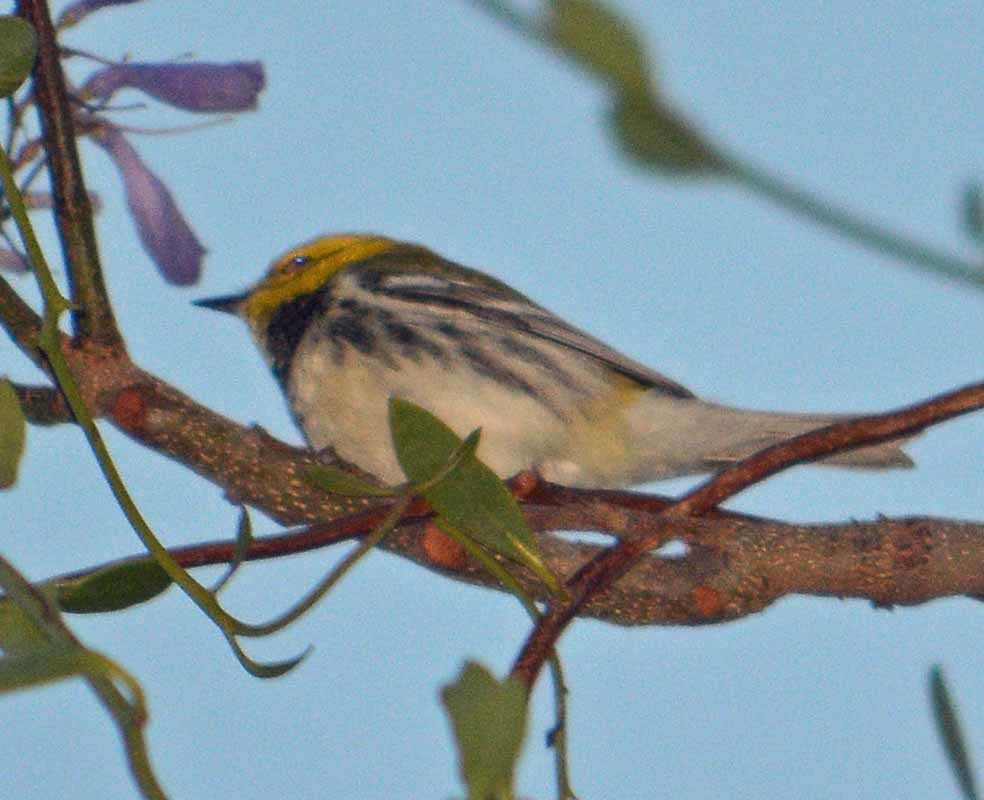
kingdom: Animalia
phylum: Chordata
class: Aves
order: Passeriformes
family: Parulidae
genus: Setophaga
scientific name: Setophaga
